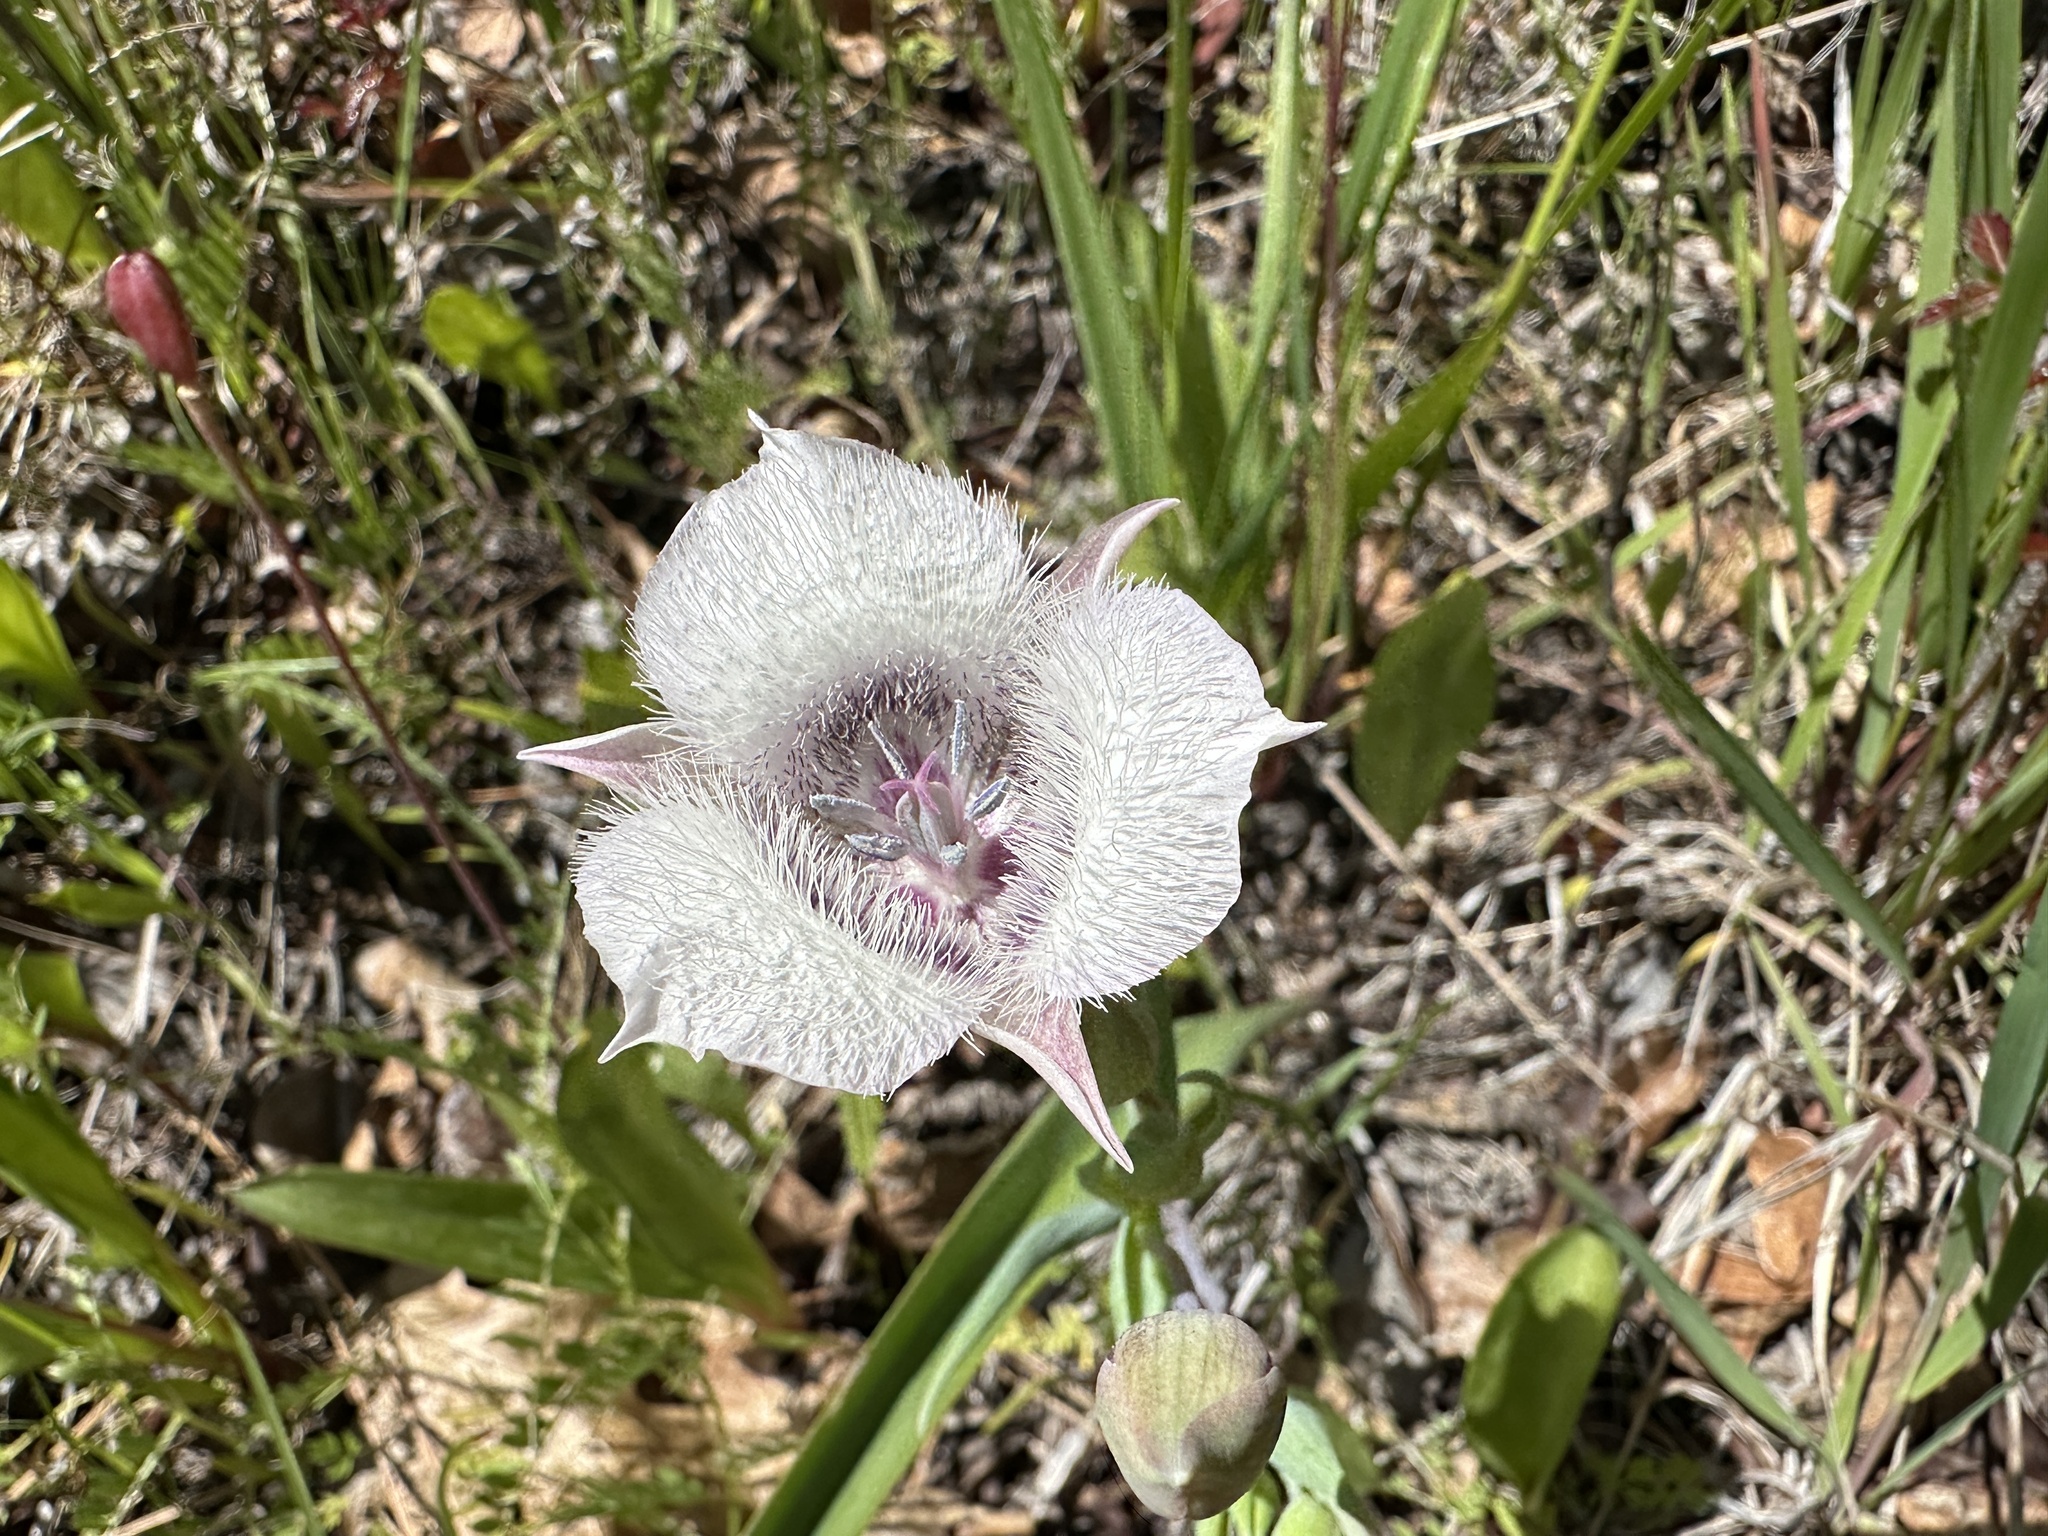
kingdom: Plantae
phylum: Tracheophyta
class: Liliopsida
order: Liliales
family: Liliaceae
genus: Calochortus
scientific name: Calochortus tolmiei
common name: Pussy-ears
